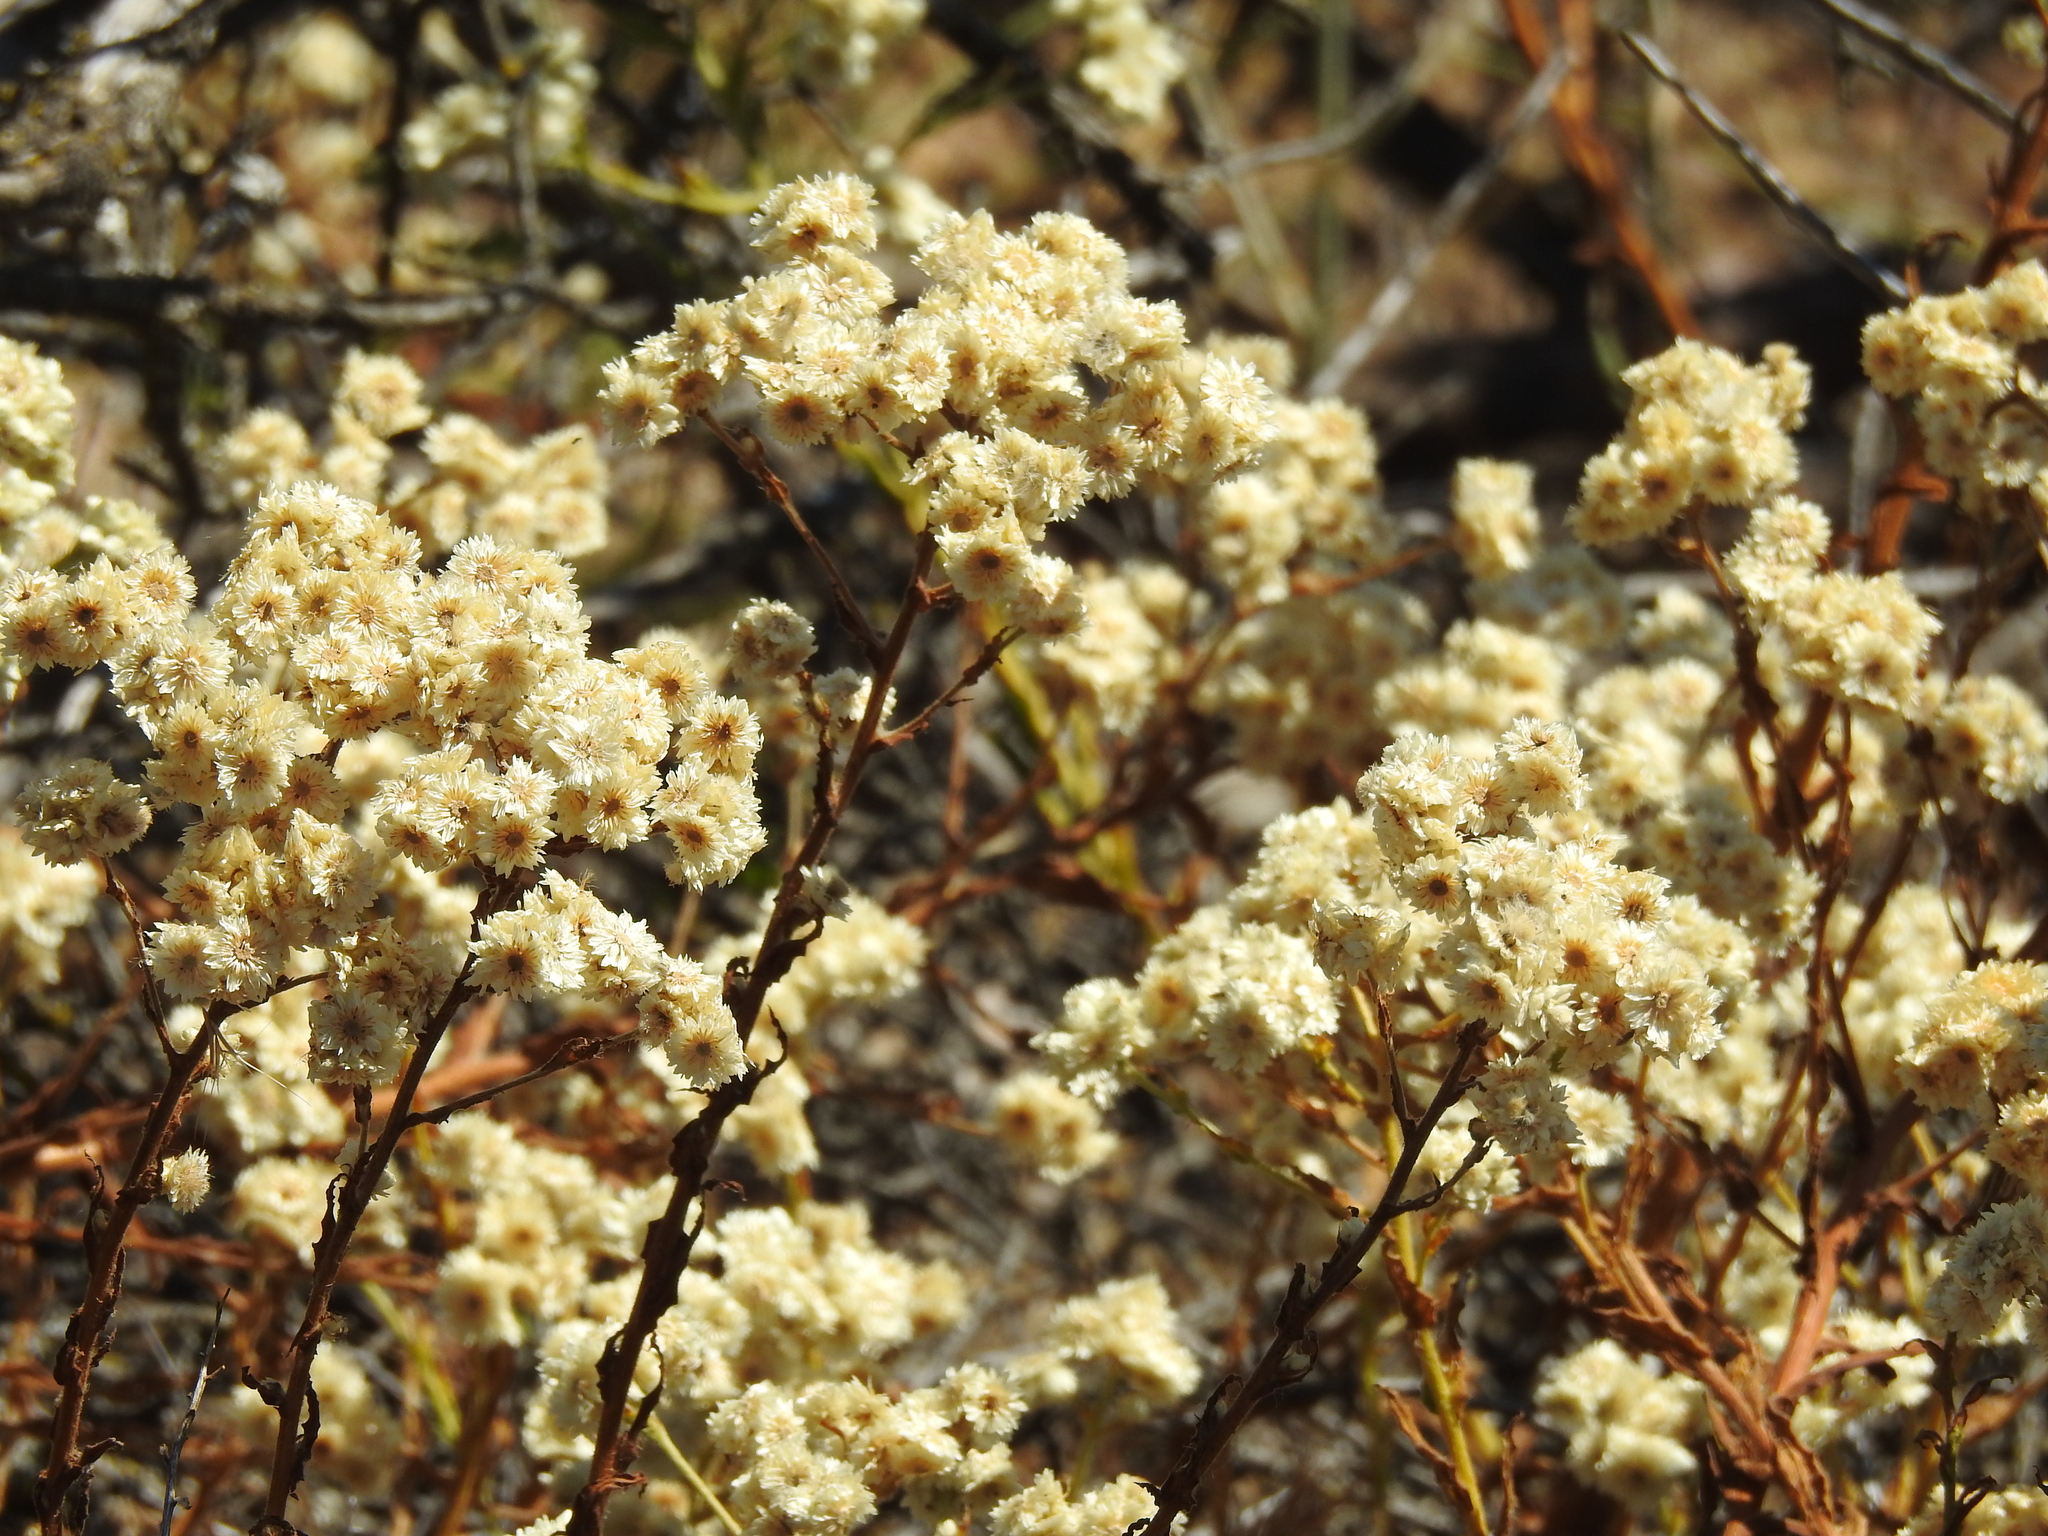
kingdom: Plantae
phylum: Tracheophyta
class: Magnoliopsida
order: Asterales
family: Asteraceae
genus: Pseudognaphalium
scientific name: Pseudognaphalium californicum
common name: California rabbit-tobacco
